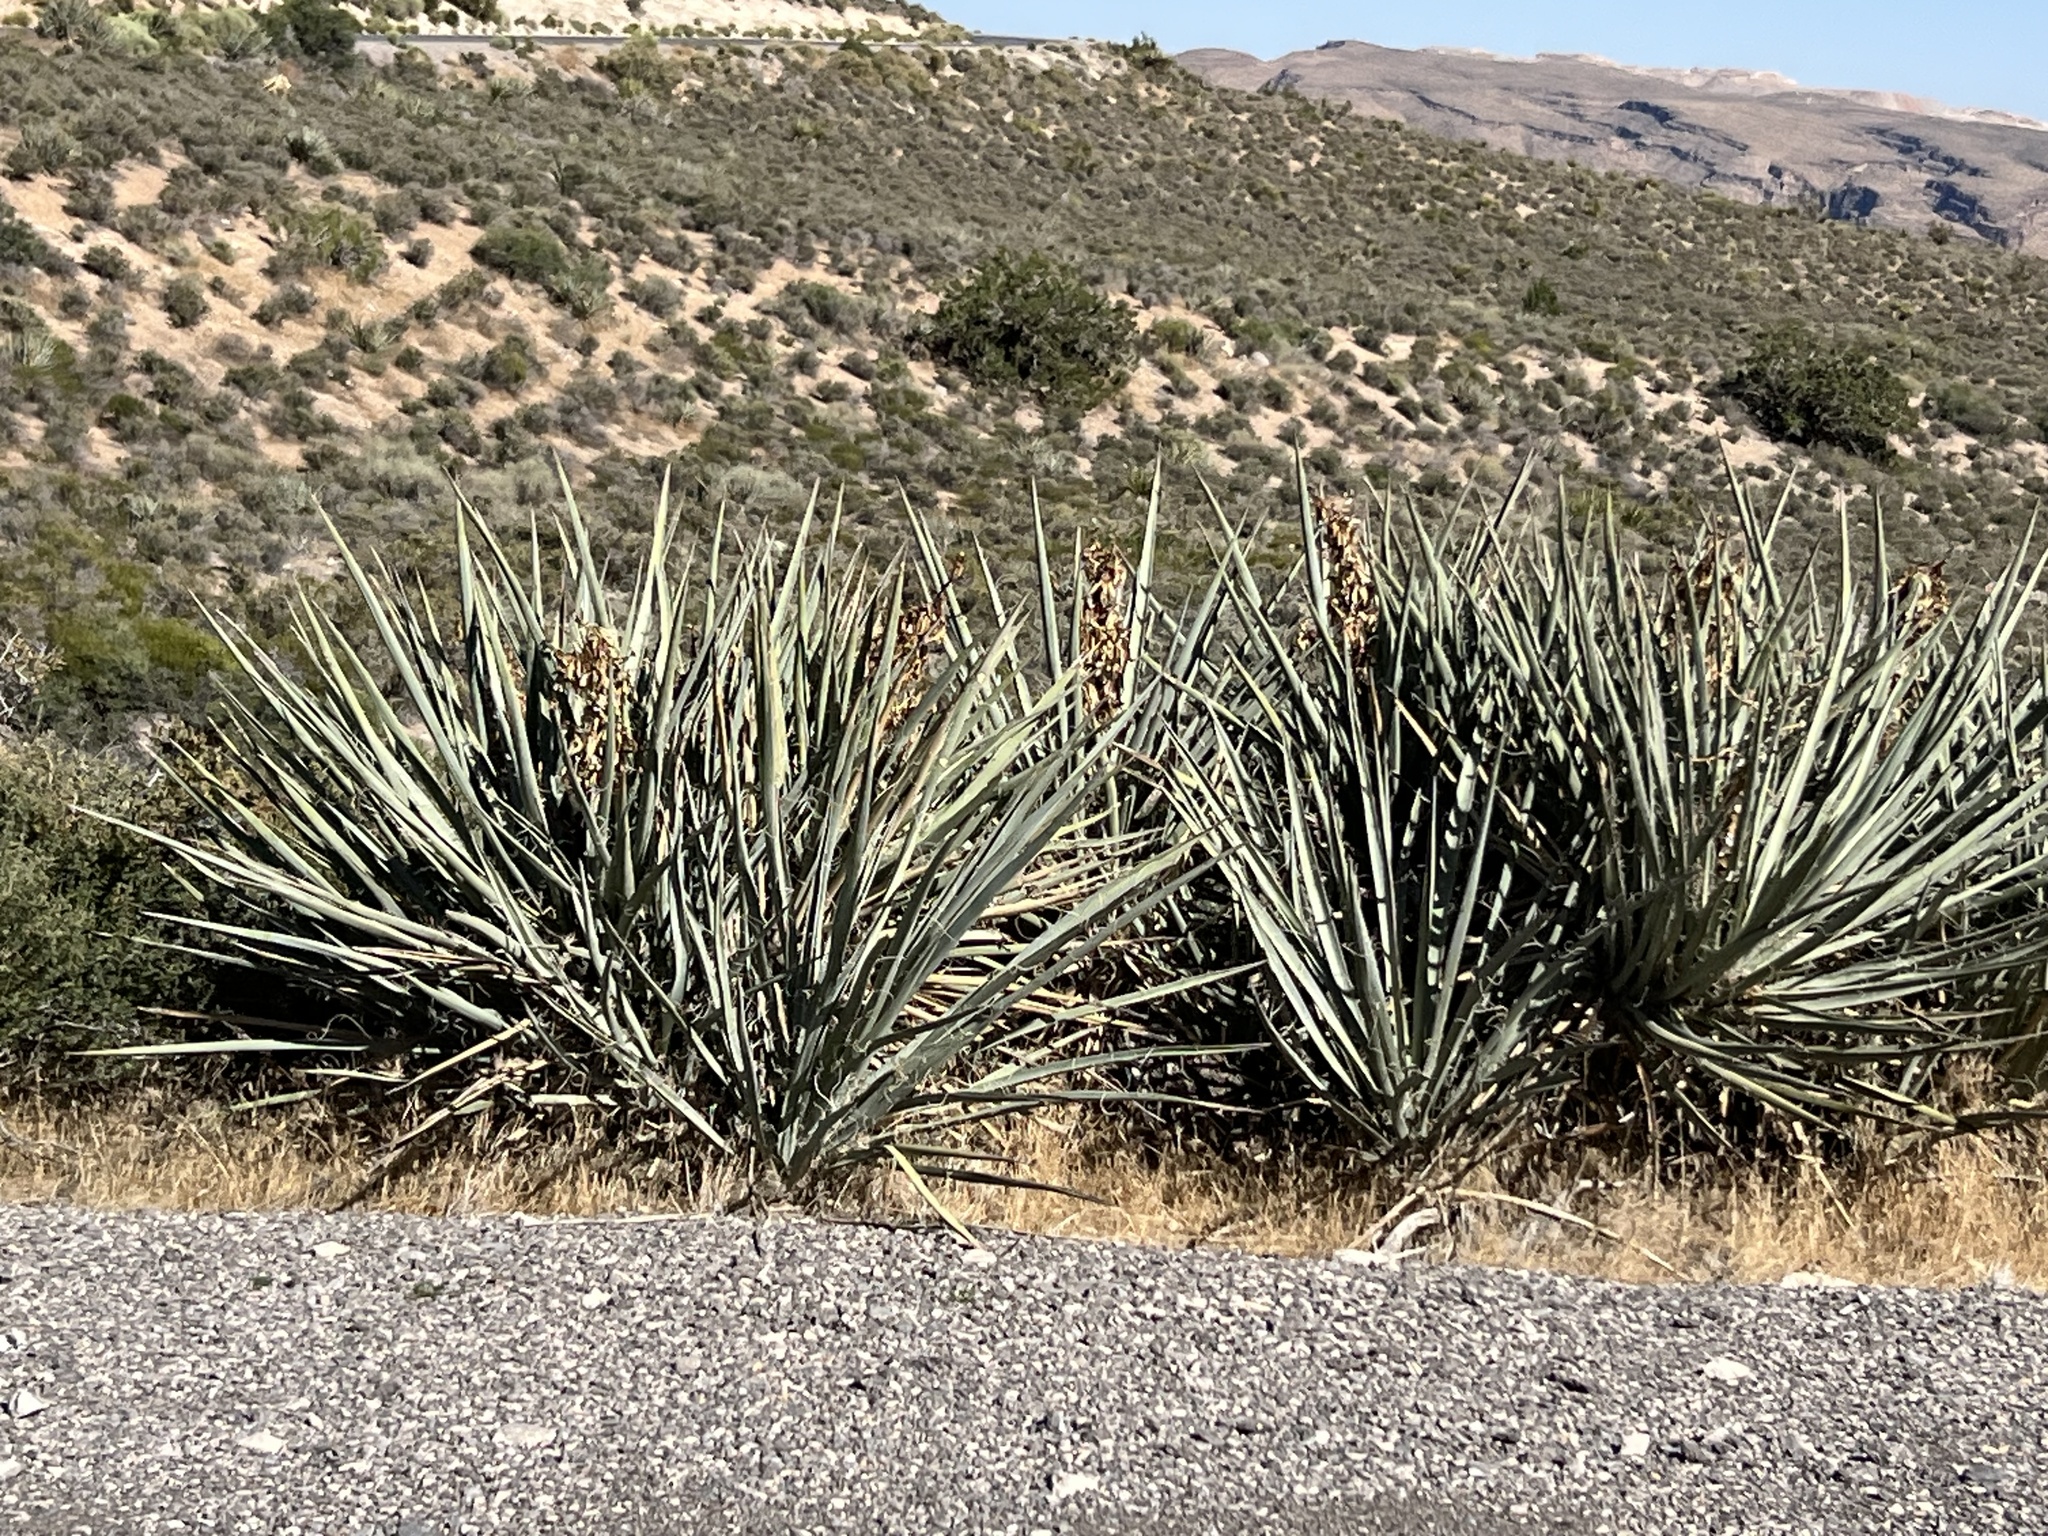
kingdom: Plantae
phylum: Tracheophyta
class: Liliopsida
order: Asparagales
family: Asparagaceae
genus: Yucca
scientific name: Yucca baccata
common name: Banana yucca
